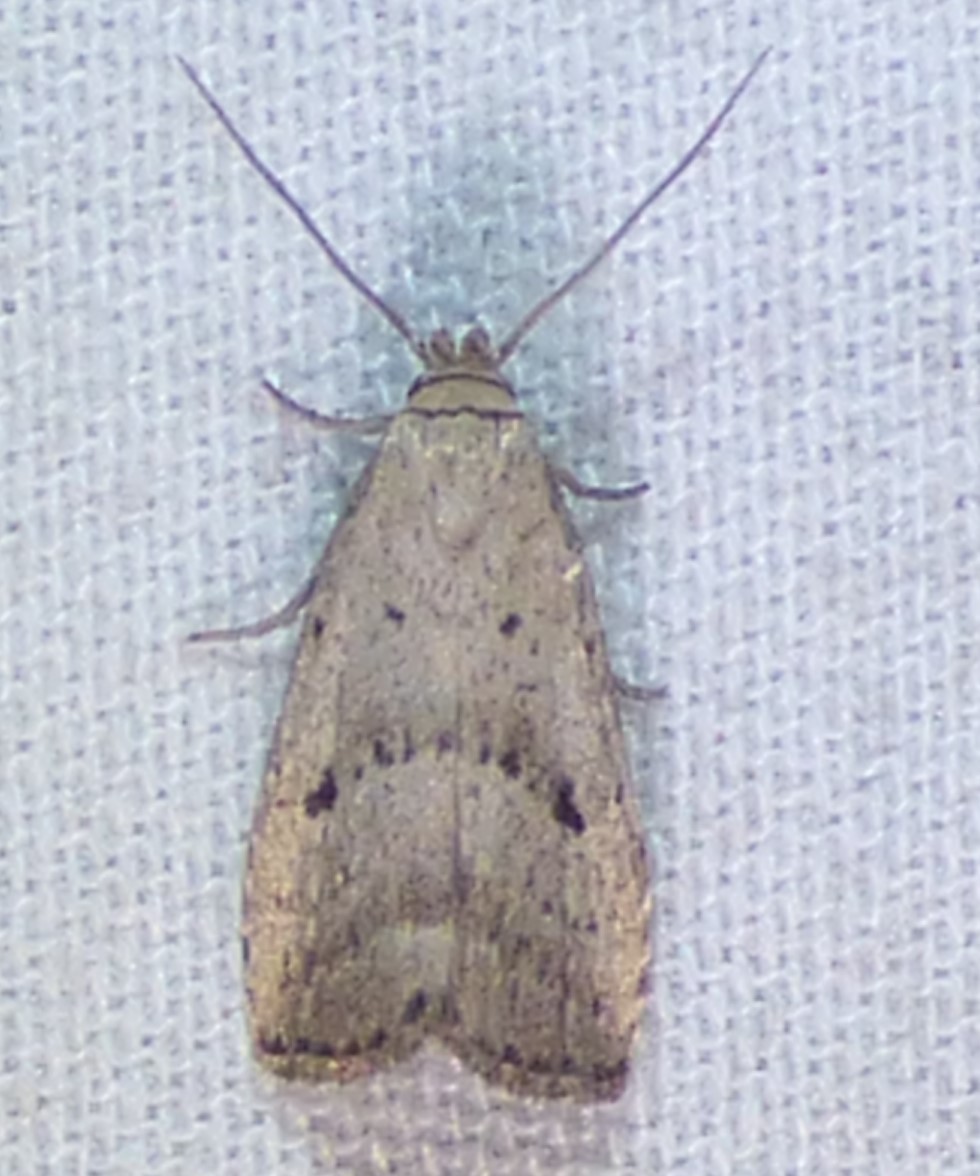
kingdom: Animalia
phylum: Arthropoda
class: Insecta
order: Lepidoptera
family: Erebidae
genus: Hypenodes
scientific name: Hypenodes fractilinea
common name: Broken-line hypenodes moth
